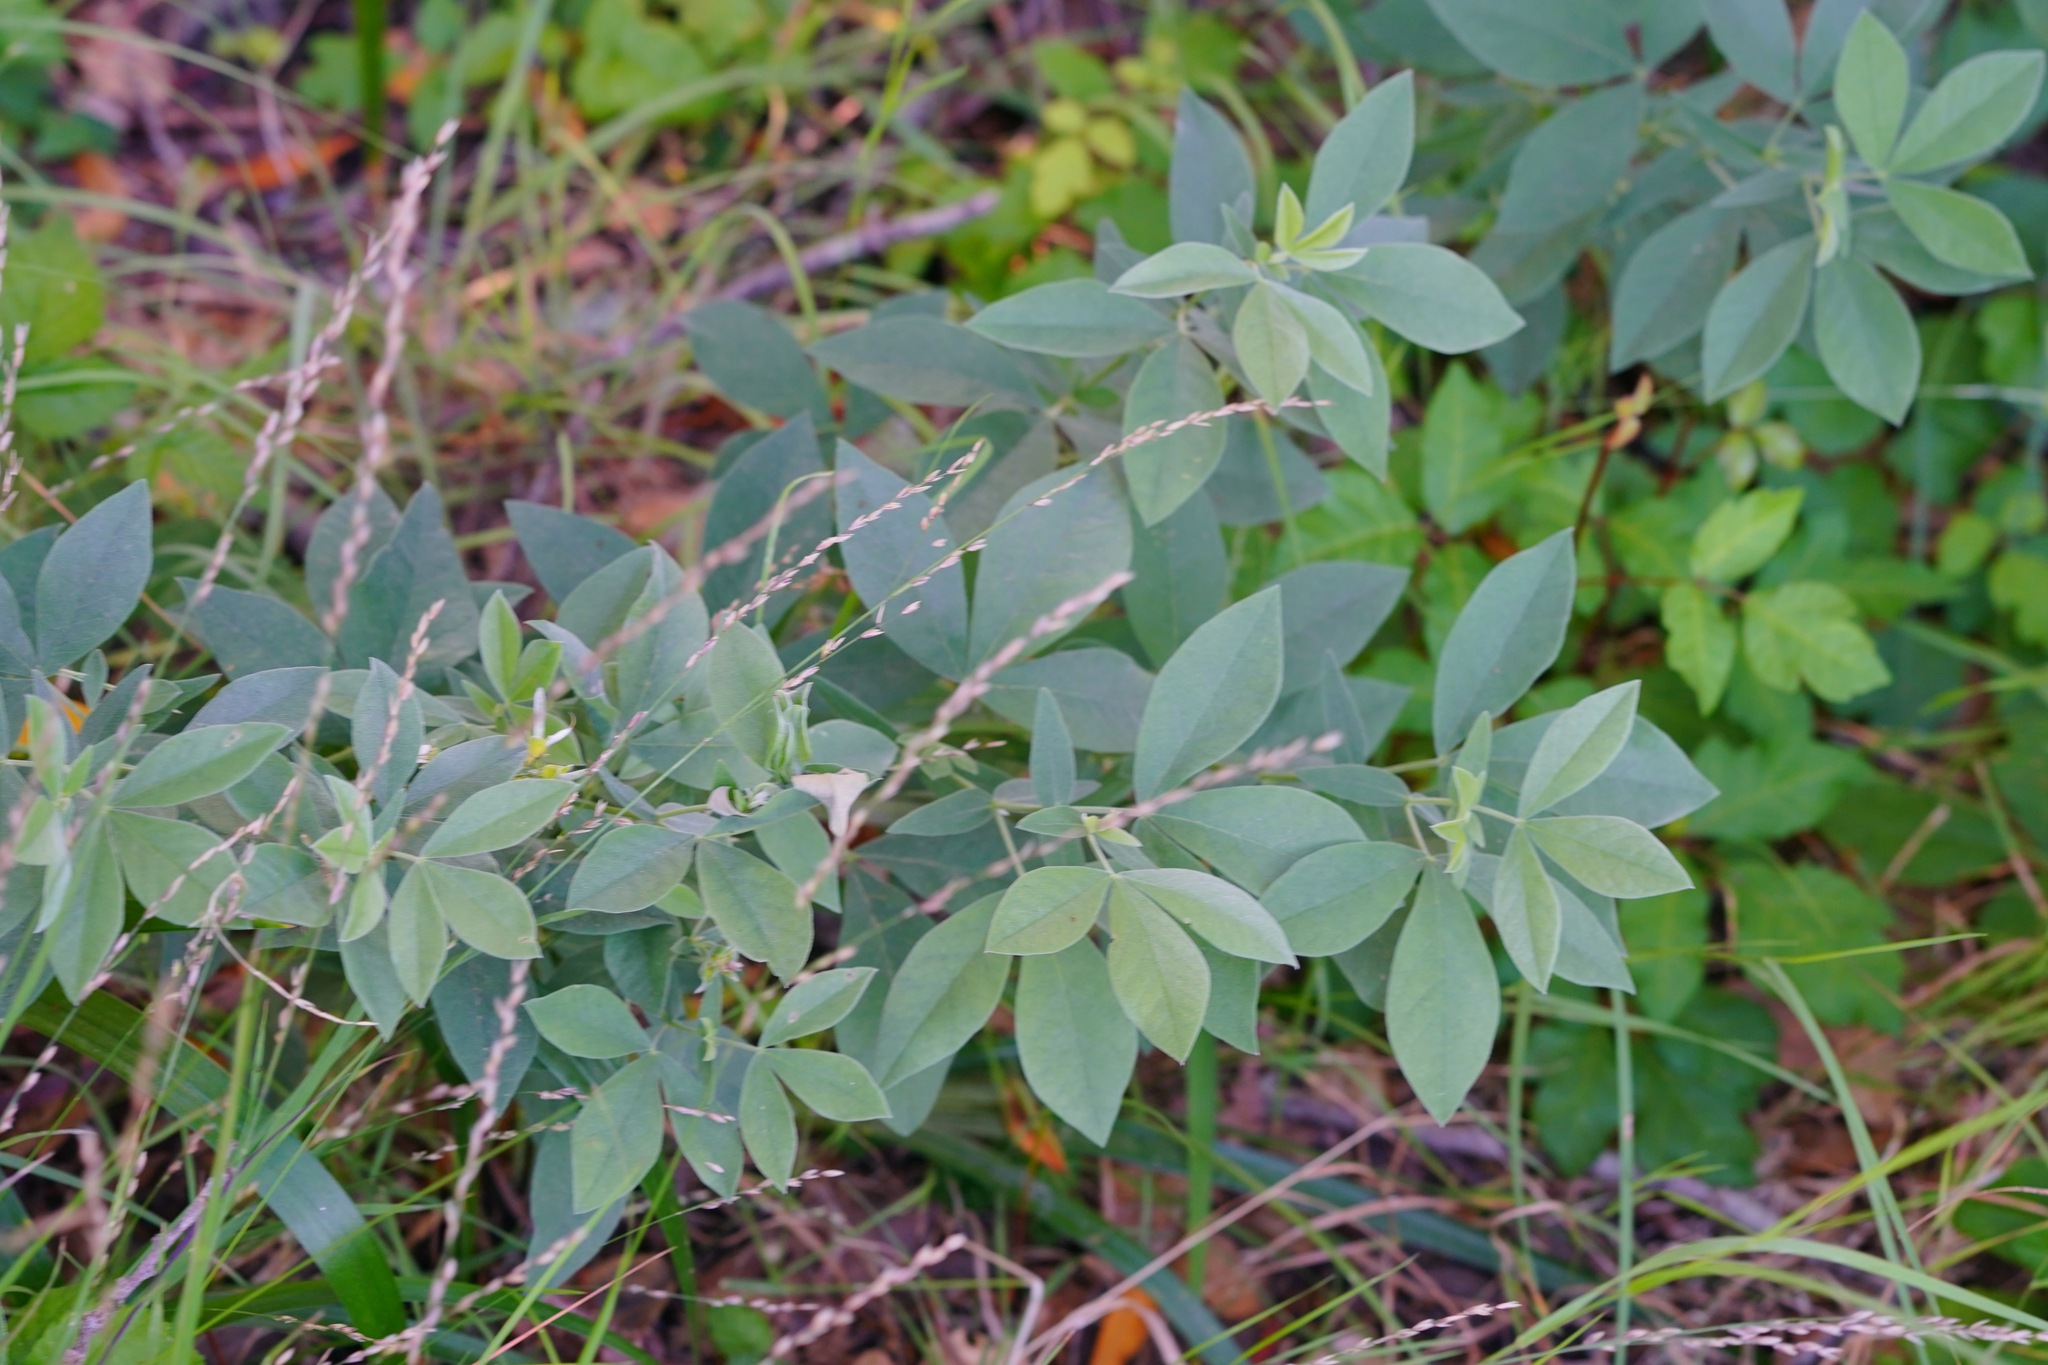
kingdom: Plantae
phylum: Tracheophyta
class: Magnoliopsida
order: Fabales
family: Fabaceae
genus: Thermopsis
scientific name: Thermopsis californica
